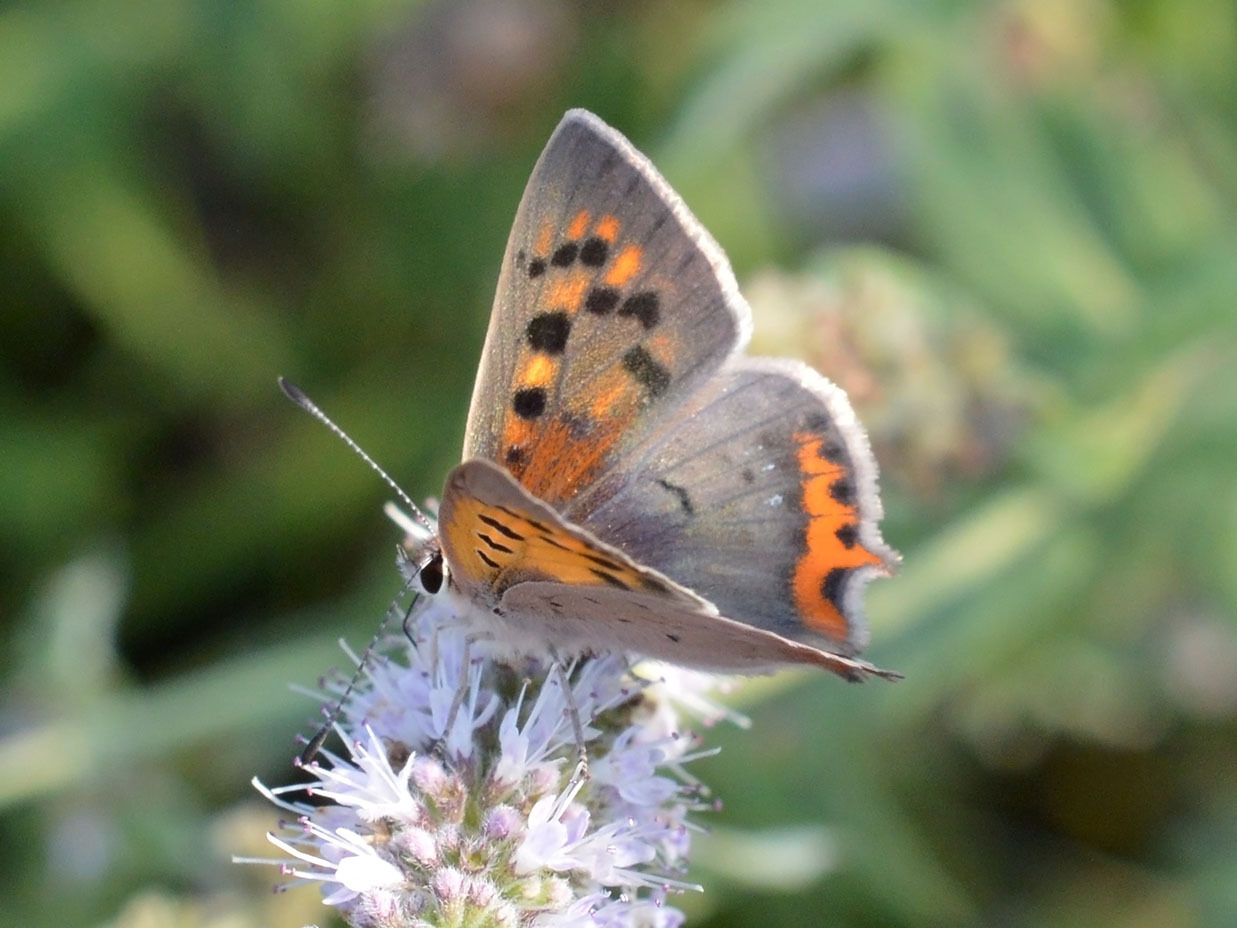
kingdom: Animalia
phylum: Arthropoda
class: Insecta
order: Lepidoptera
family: Lycaenidae
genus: Lycaena
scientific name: Lycaena phlaeas
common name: Small copper
